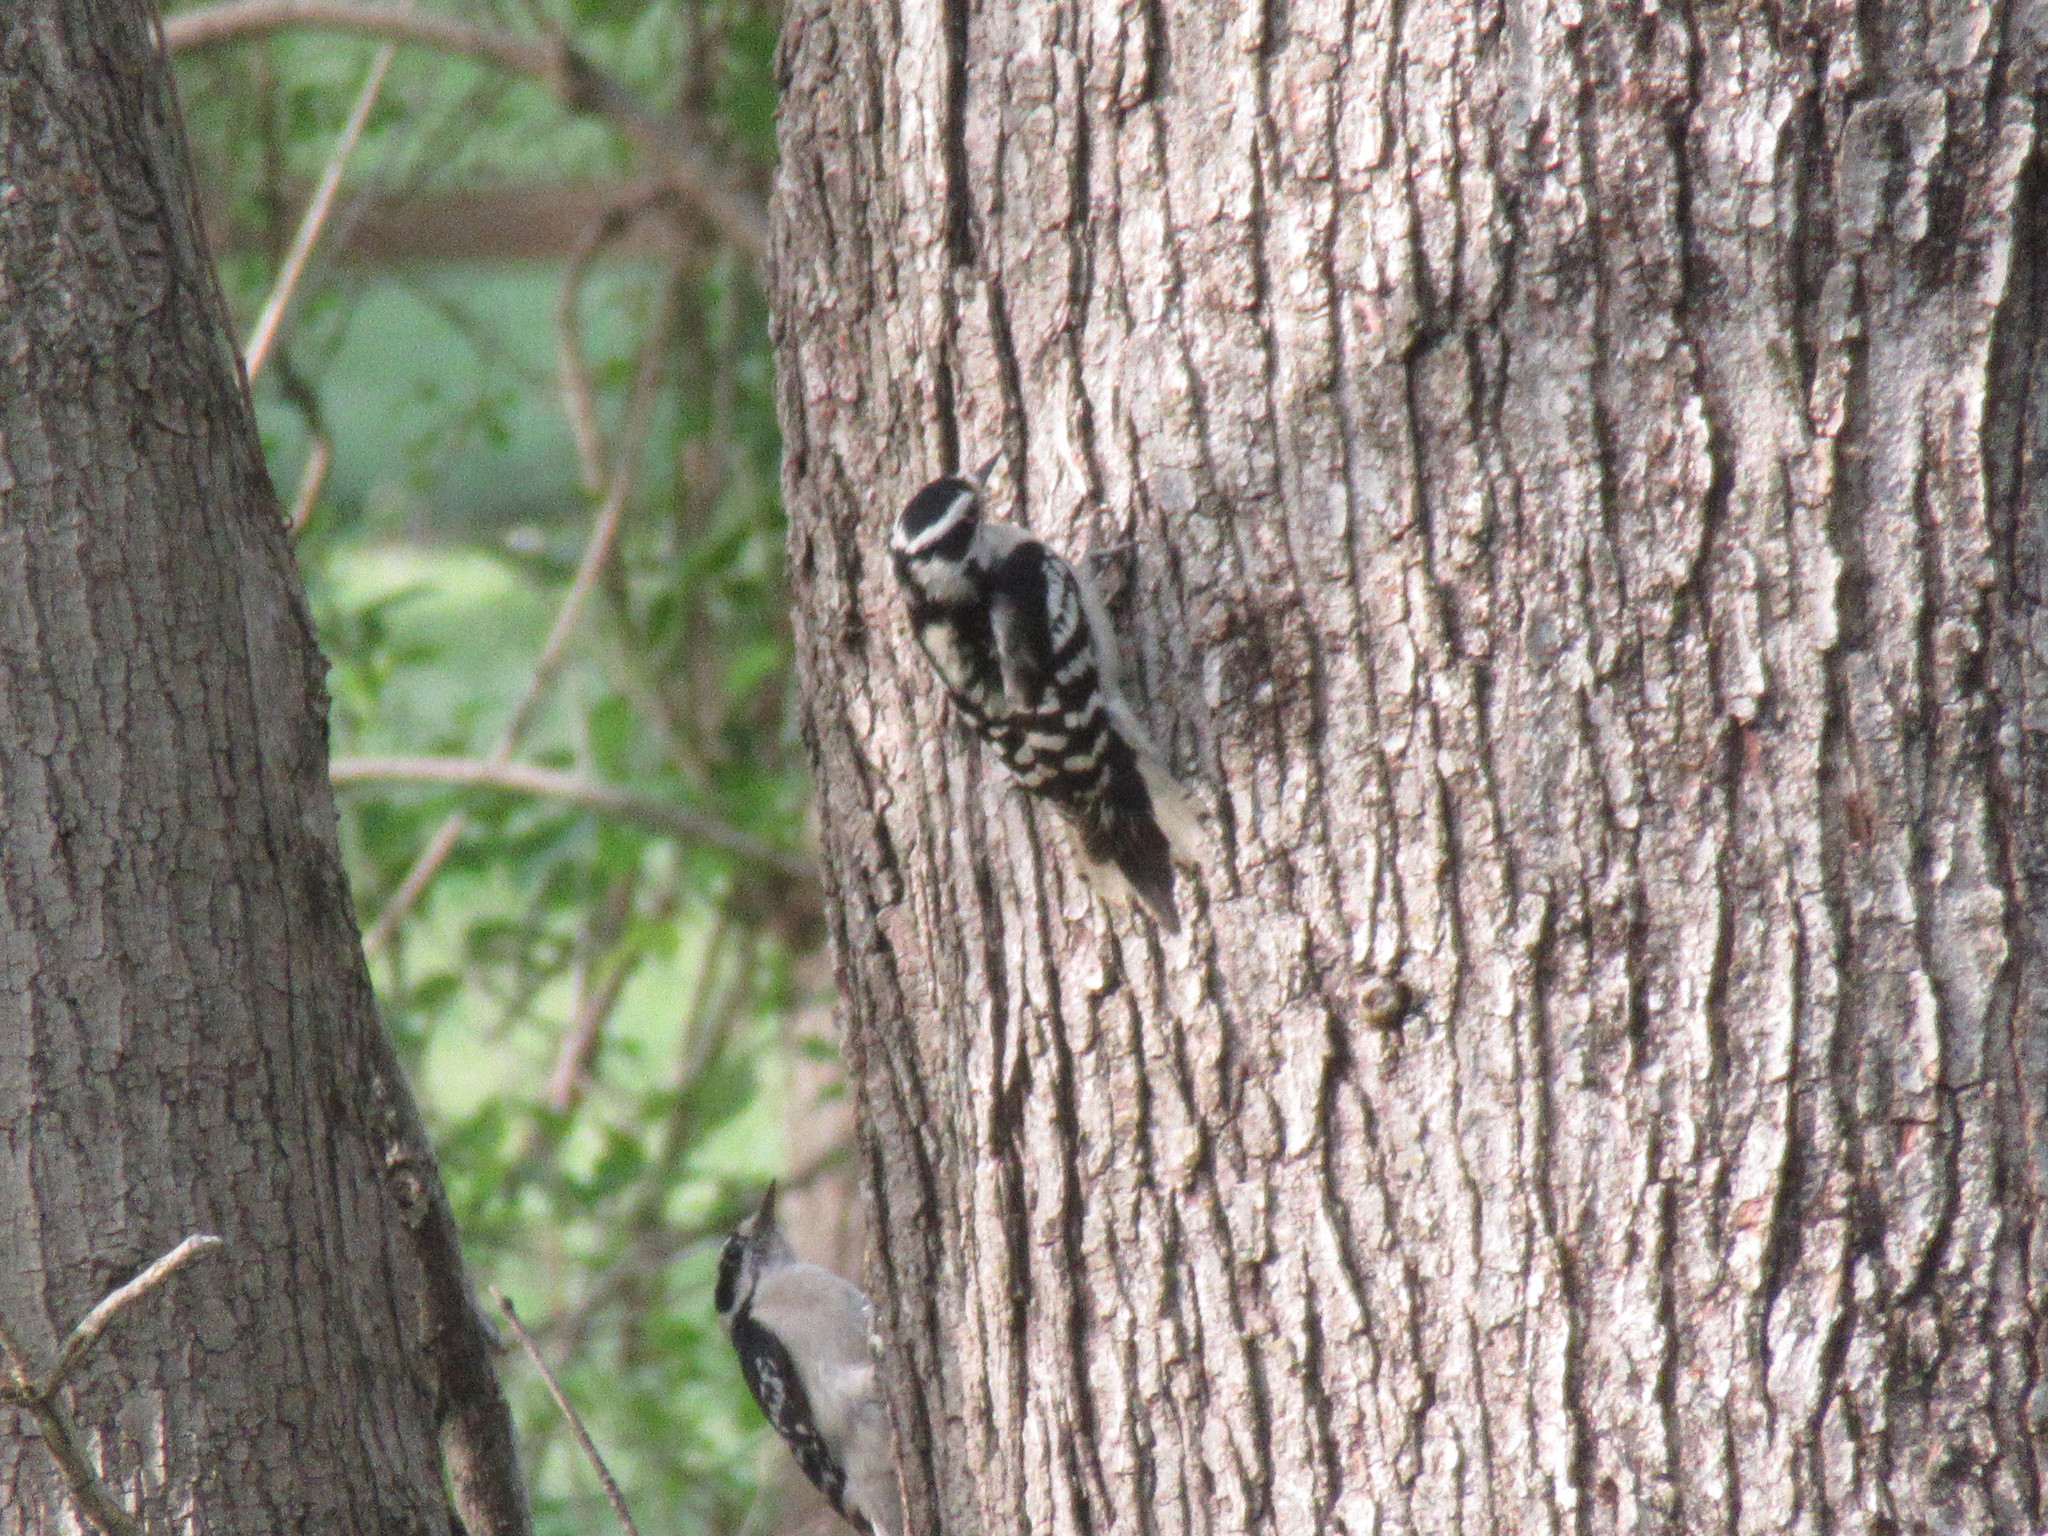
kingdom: Animalia
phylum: Chordata
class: Aves
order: Piciformes
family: Picidae
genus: Dryobates
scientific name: Dryobates pubescens
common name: Downy woodpecker
